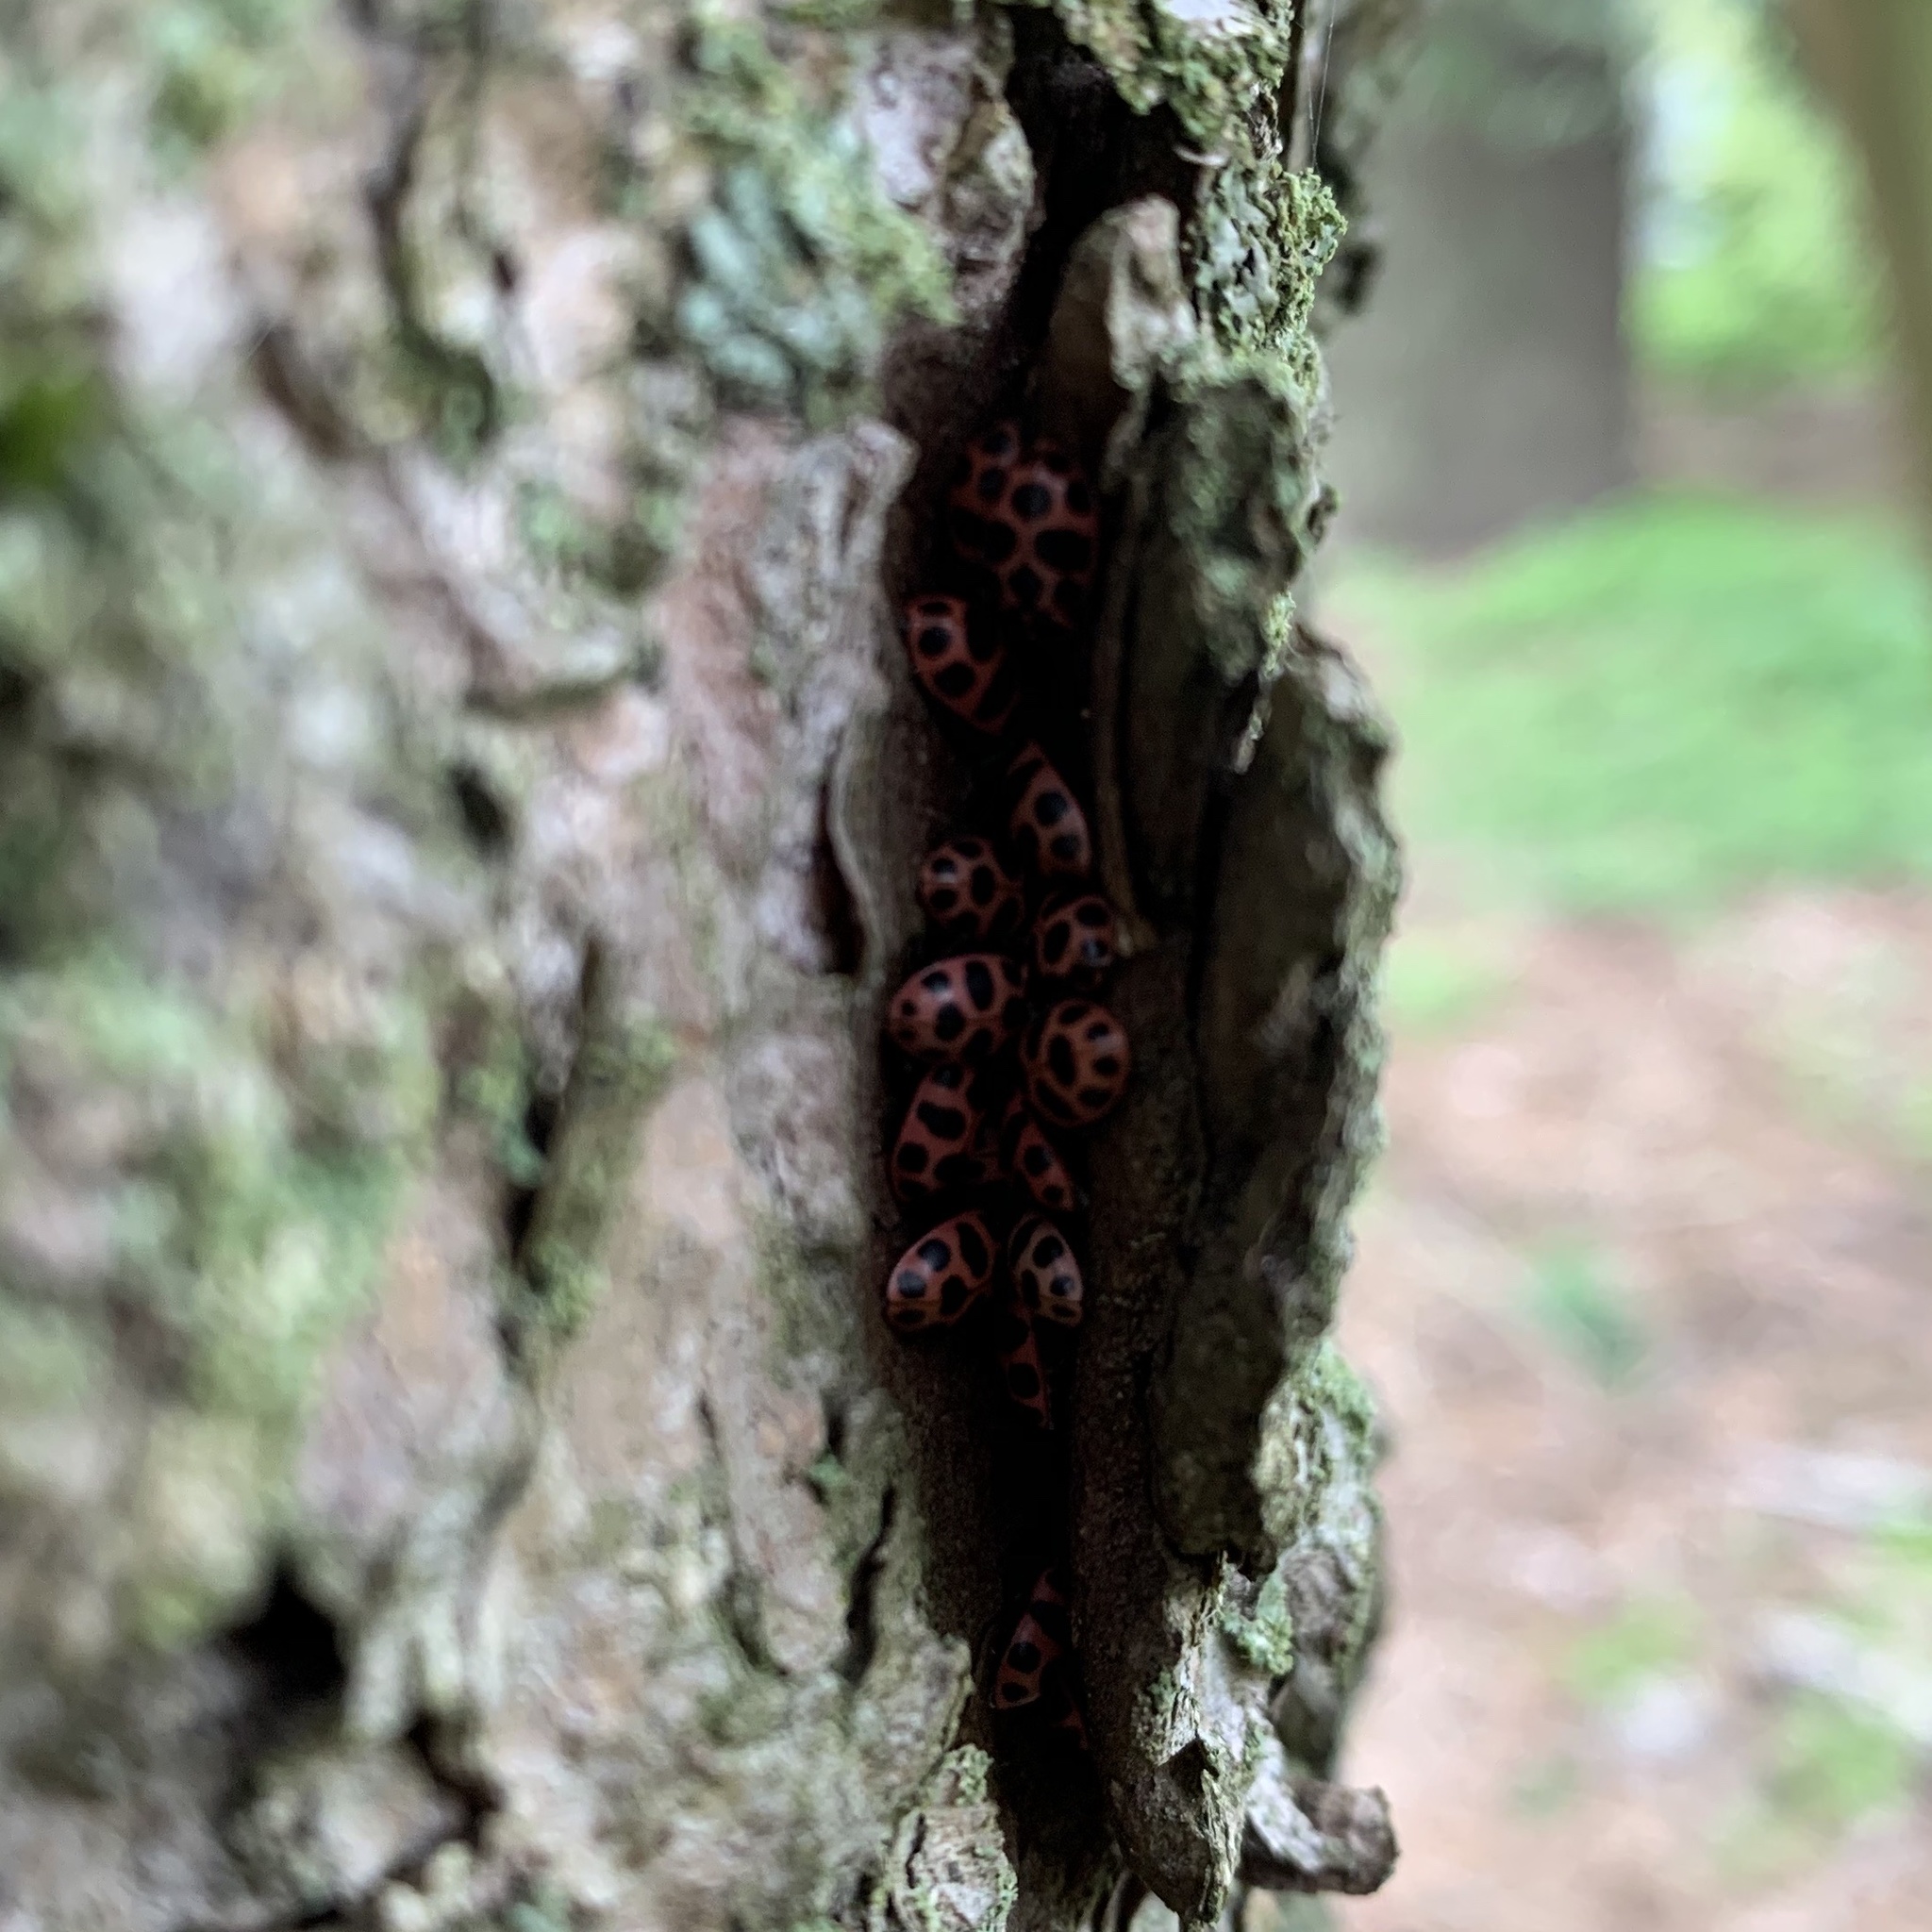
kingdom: Animalia
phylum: Arthropoda
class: Insecta
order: Coleoptera
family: Coccinellidae
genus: Coleomegilla
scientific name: Coleomegilla maculata
